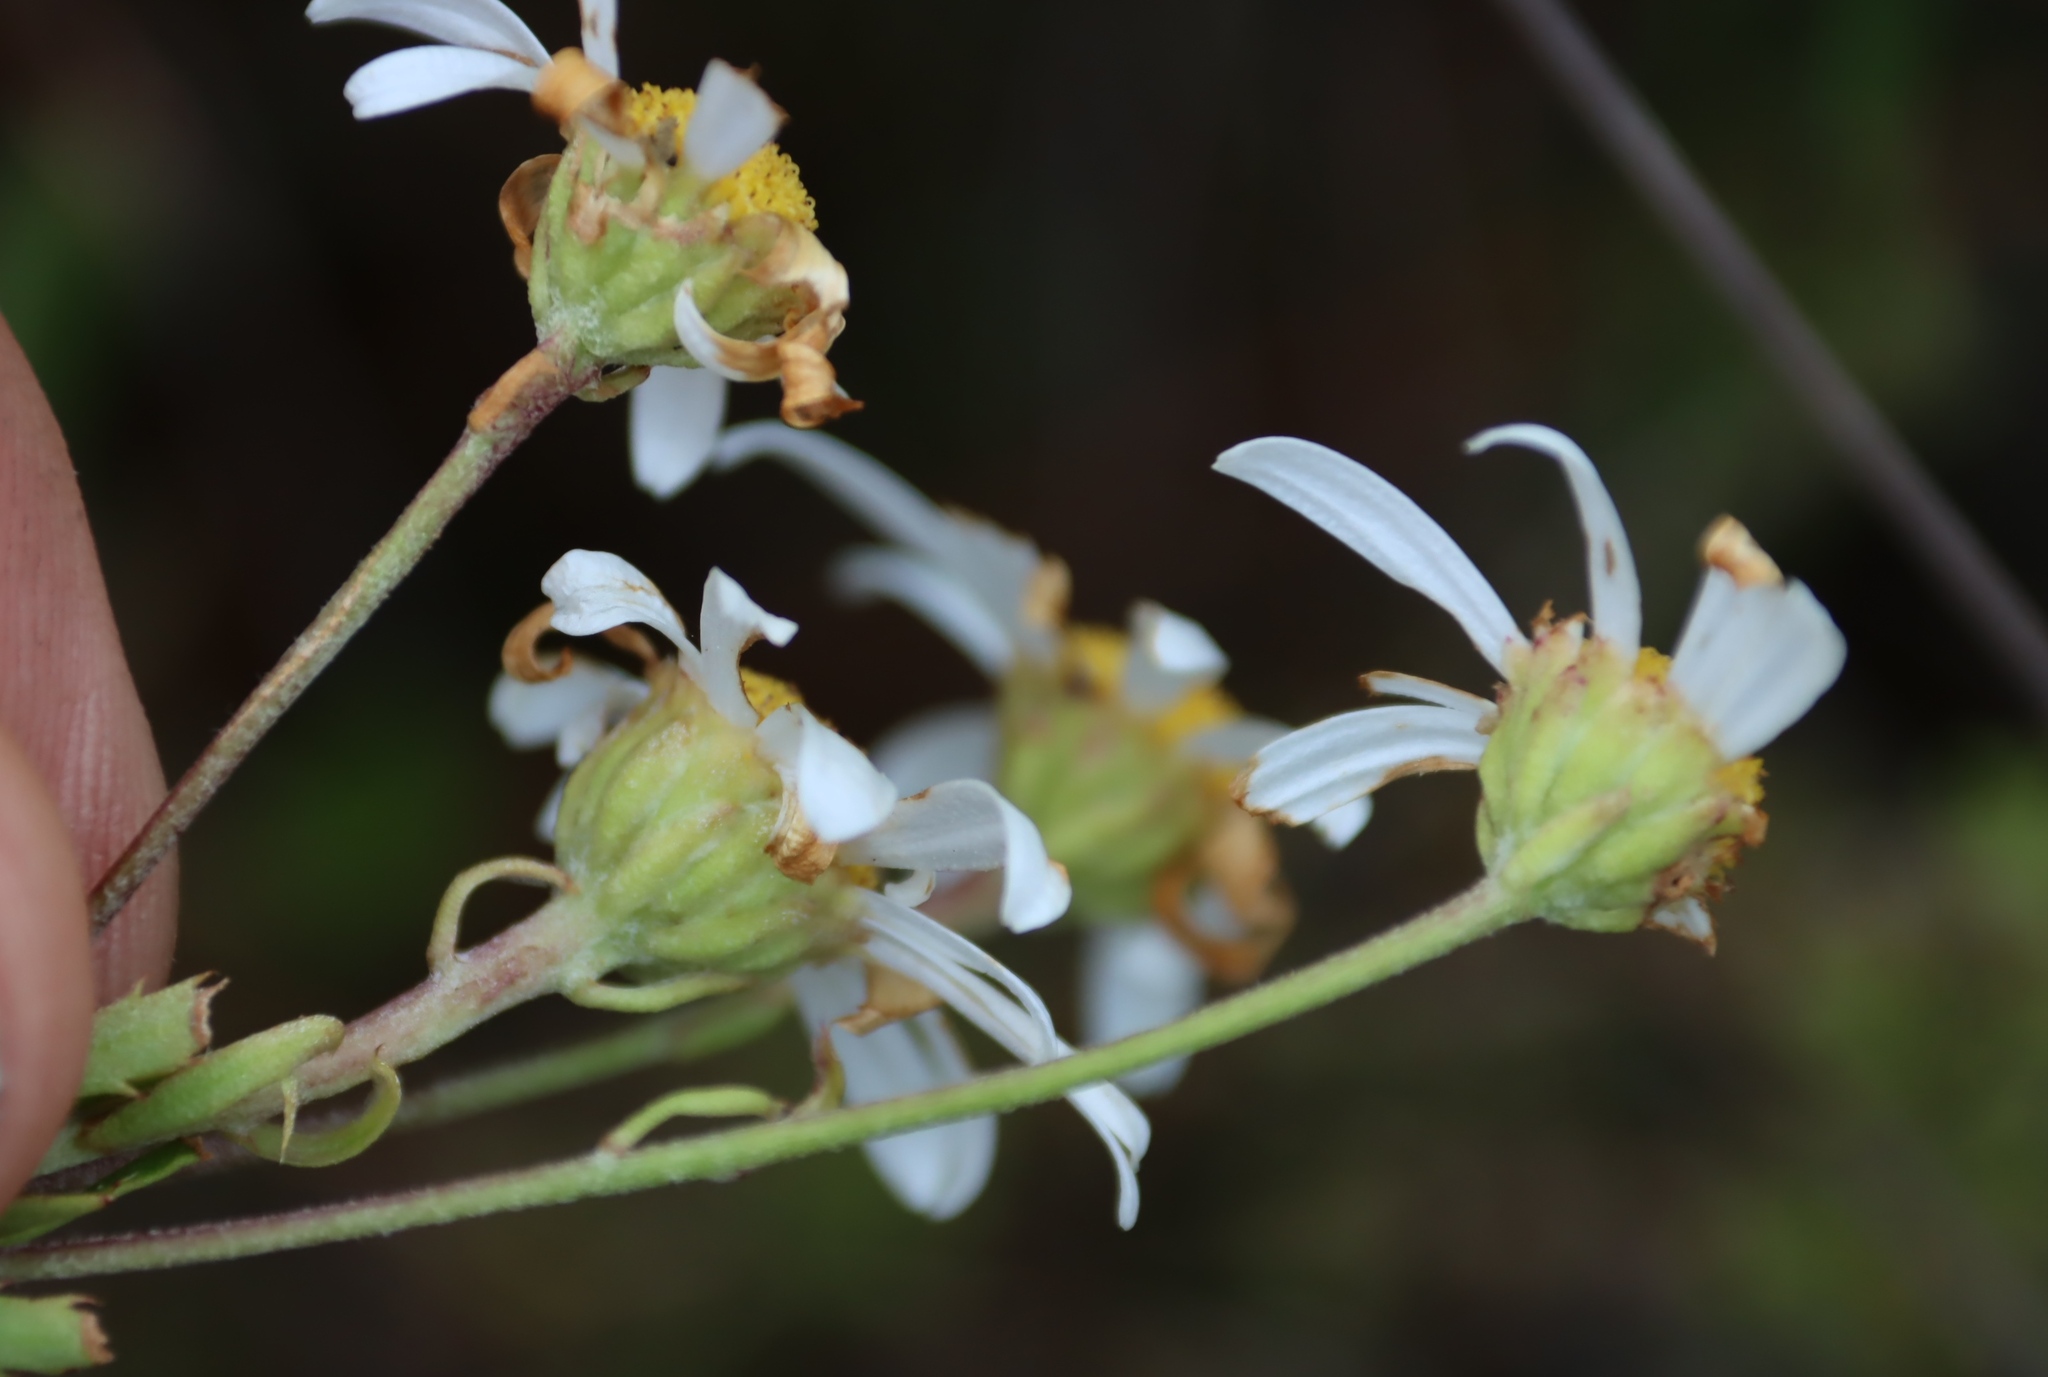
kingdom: Plantae
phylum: Tracheophyta
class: Magnoliopsida
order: Asterales
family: Asteraceae
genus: Osmitopsis
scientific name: Osmitopsis osmitoides
